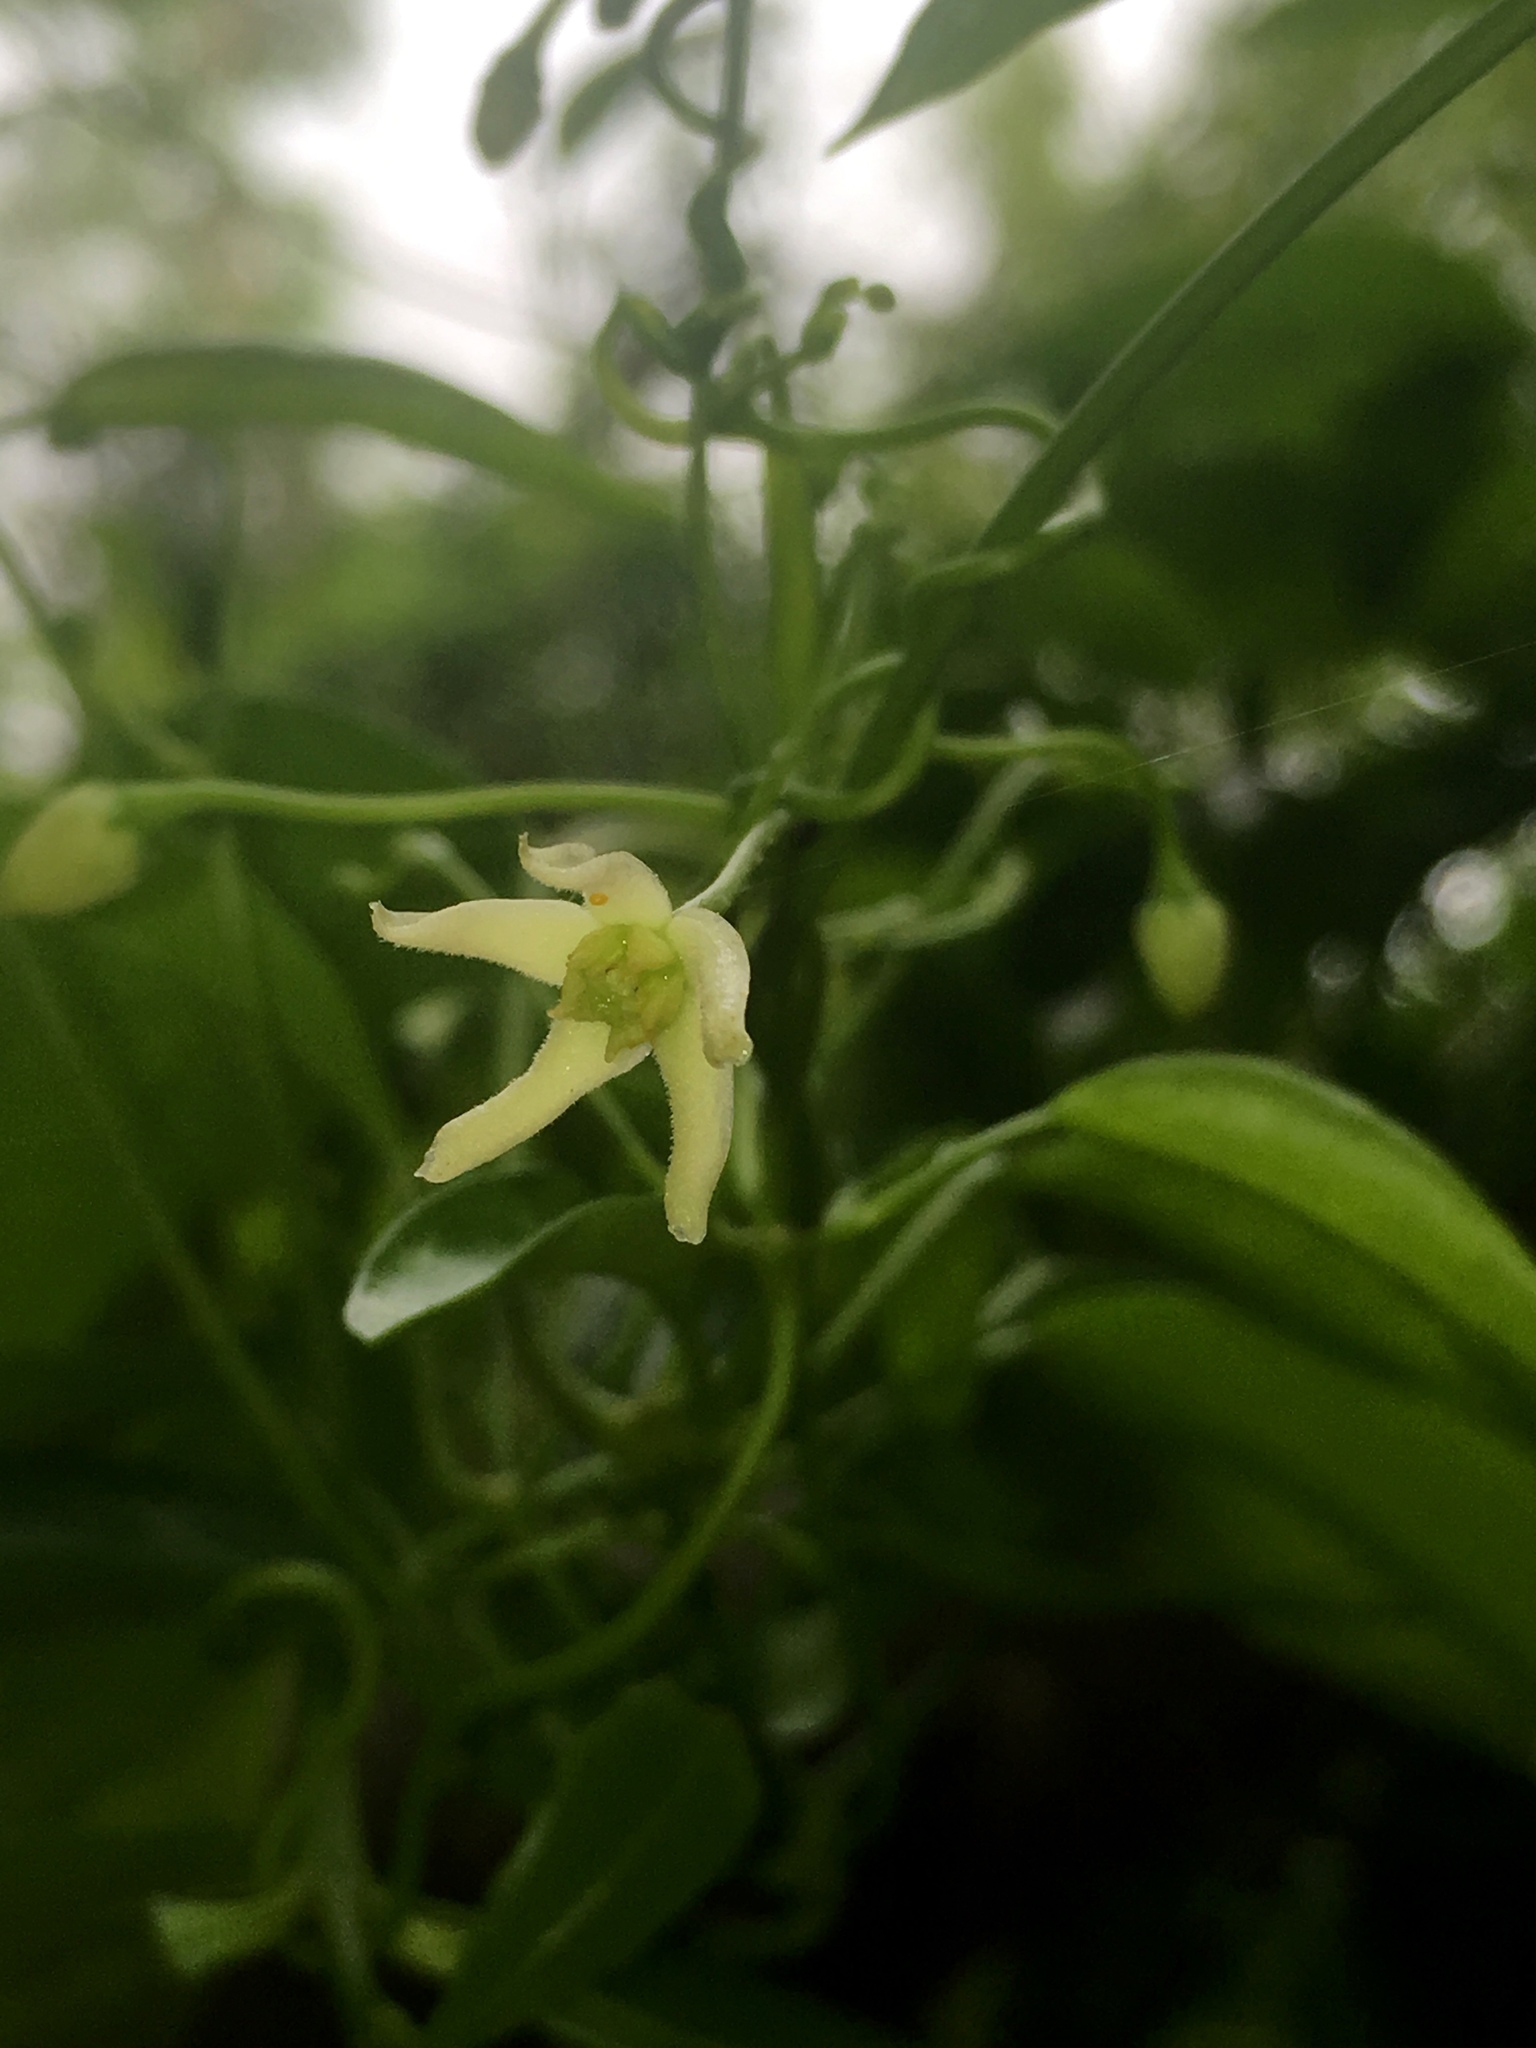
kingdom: Plantae
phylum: Tracheophyta
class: Magnoliopsida
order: Gentianales
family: Apocynaceae
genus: Vincetoxicum
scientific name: Vincetoxicum elegans
